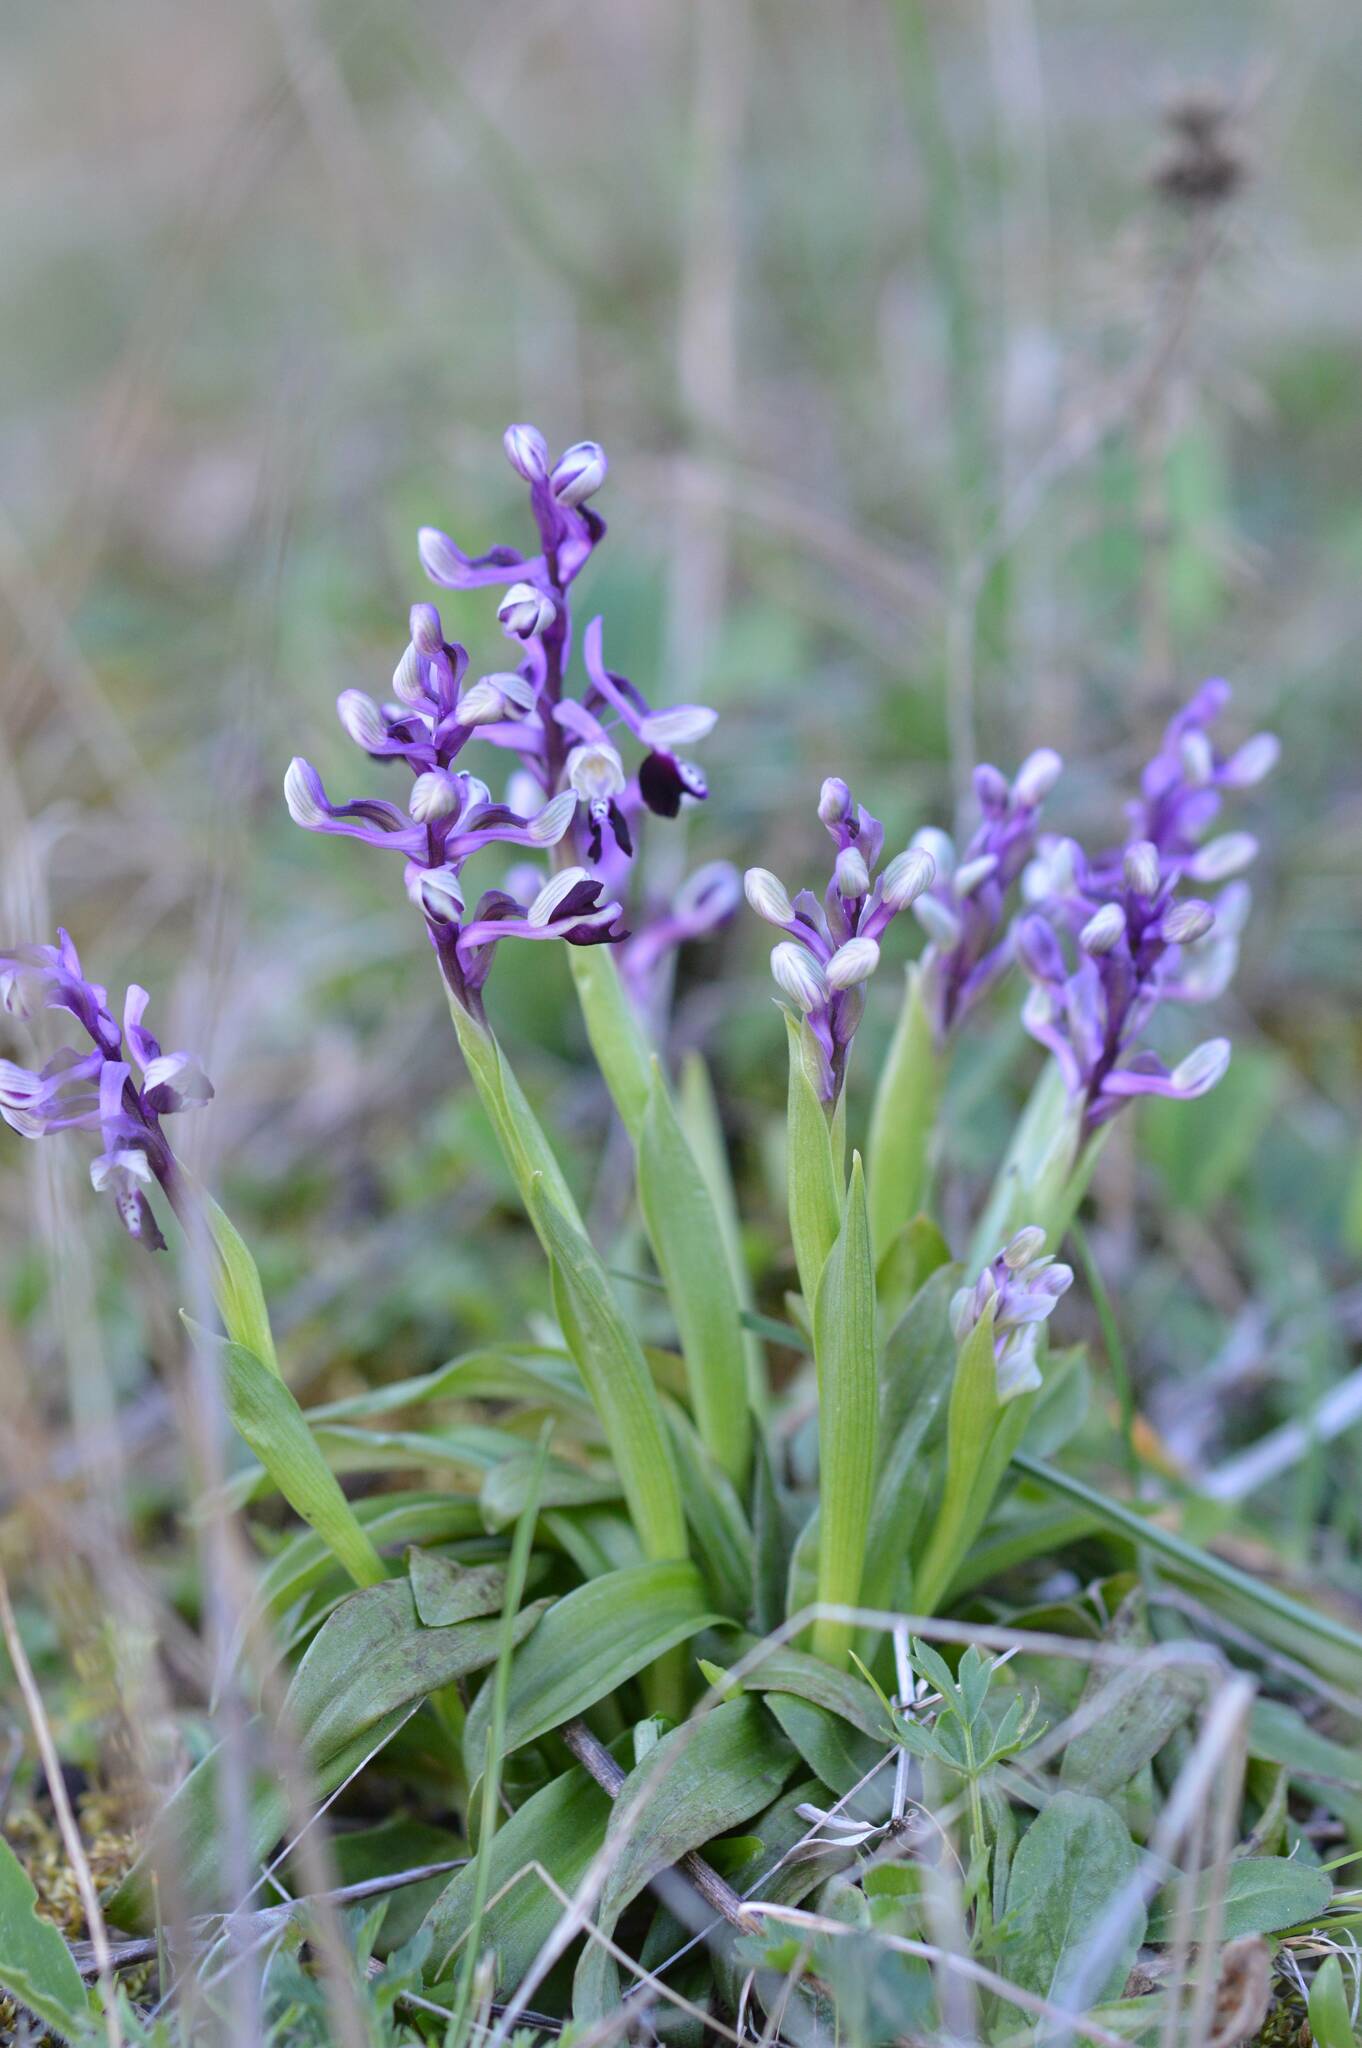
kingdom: Plantae
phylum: Tracheophyta
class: Liliopsida
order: Asparagales
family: Orchidaceae
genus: Anacamptis
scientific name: Anacamptis morio
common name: Green-winged orchid
